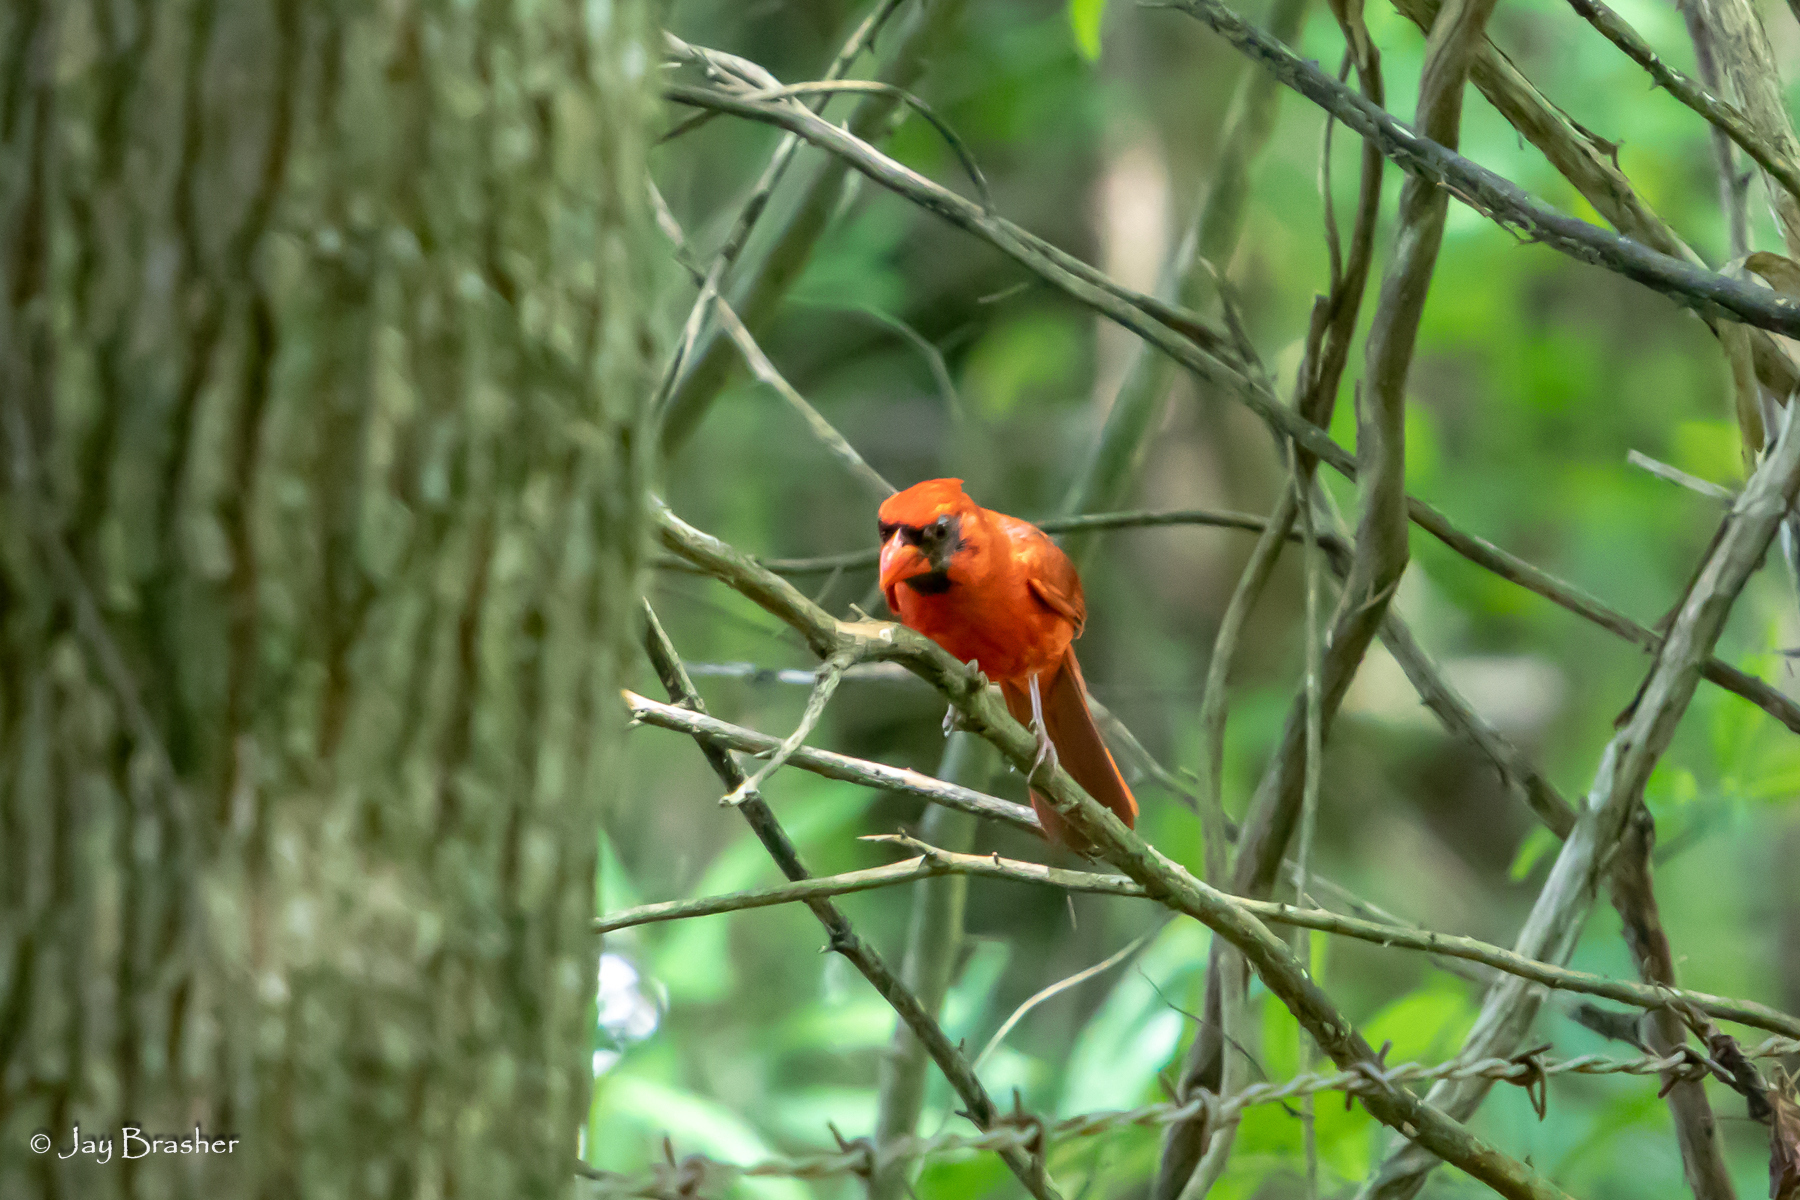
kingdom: Animalia
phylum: Chordata
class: Aves
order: Passeriformes
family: Cardinalidae
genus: Cardinalis
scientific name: Cardinalis cardinalis
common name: Northern cardinal
